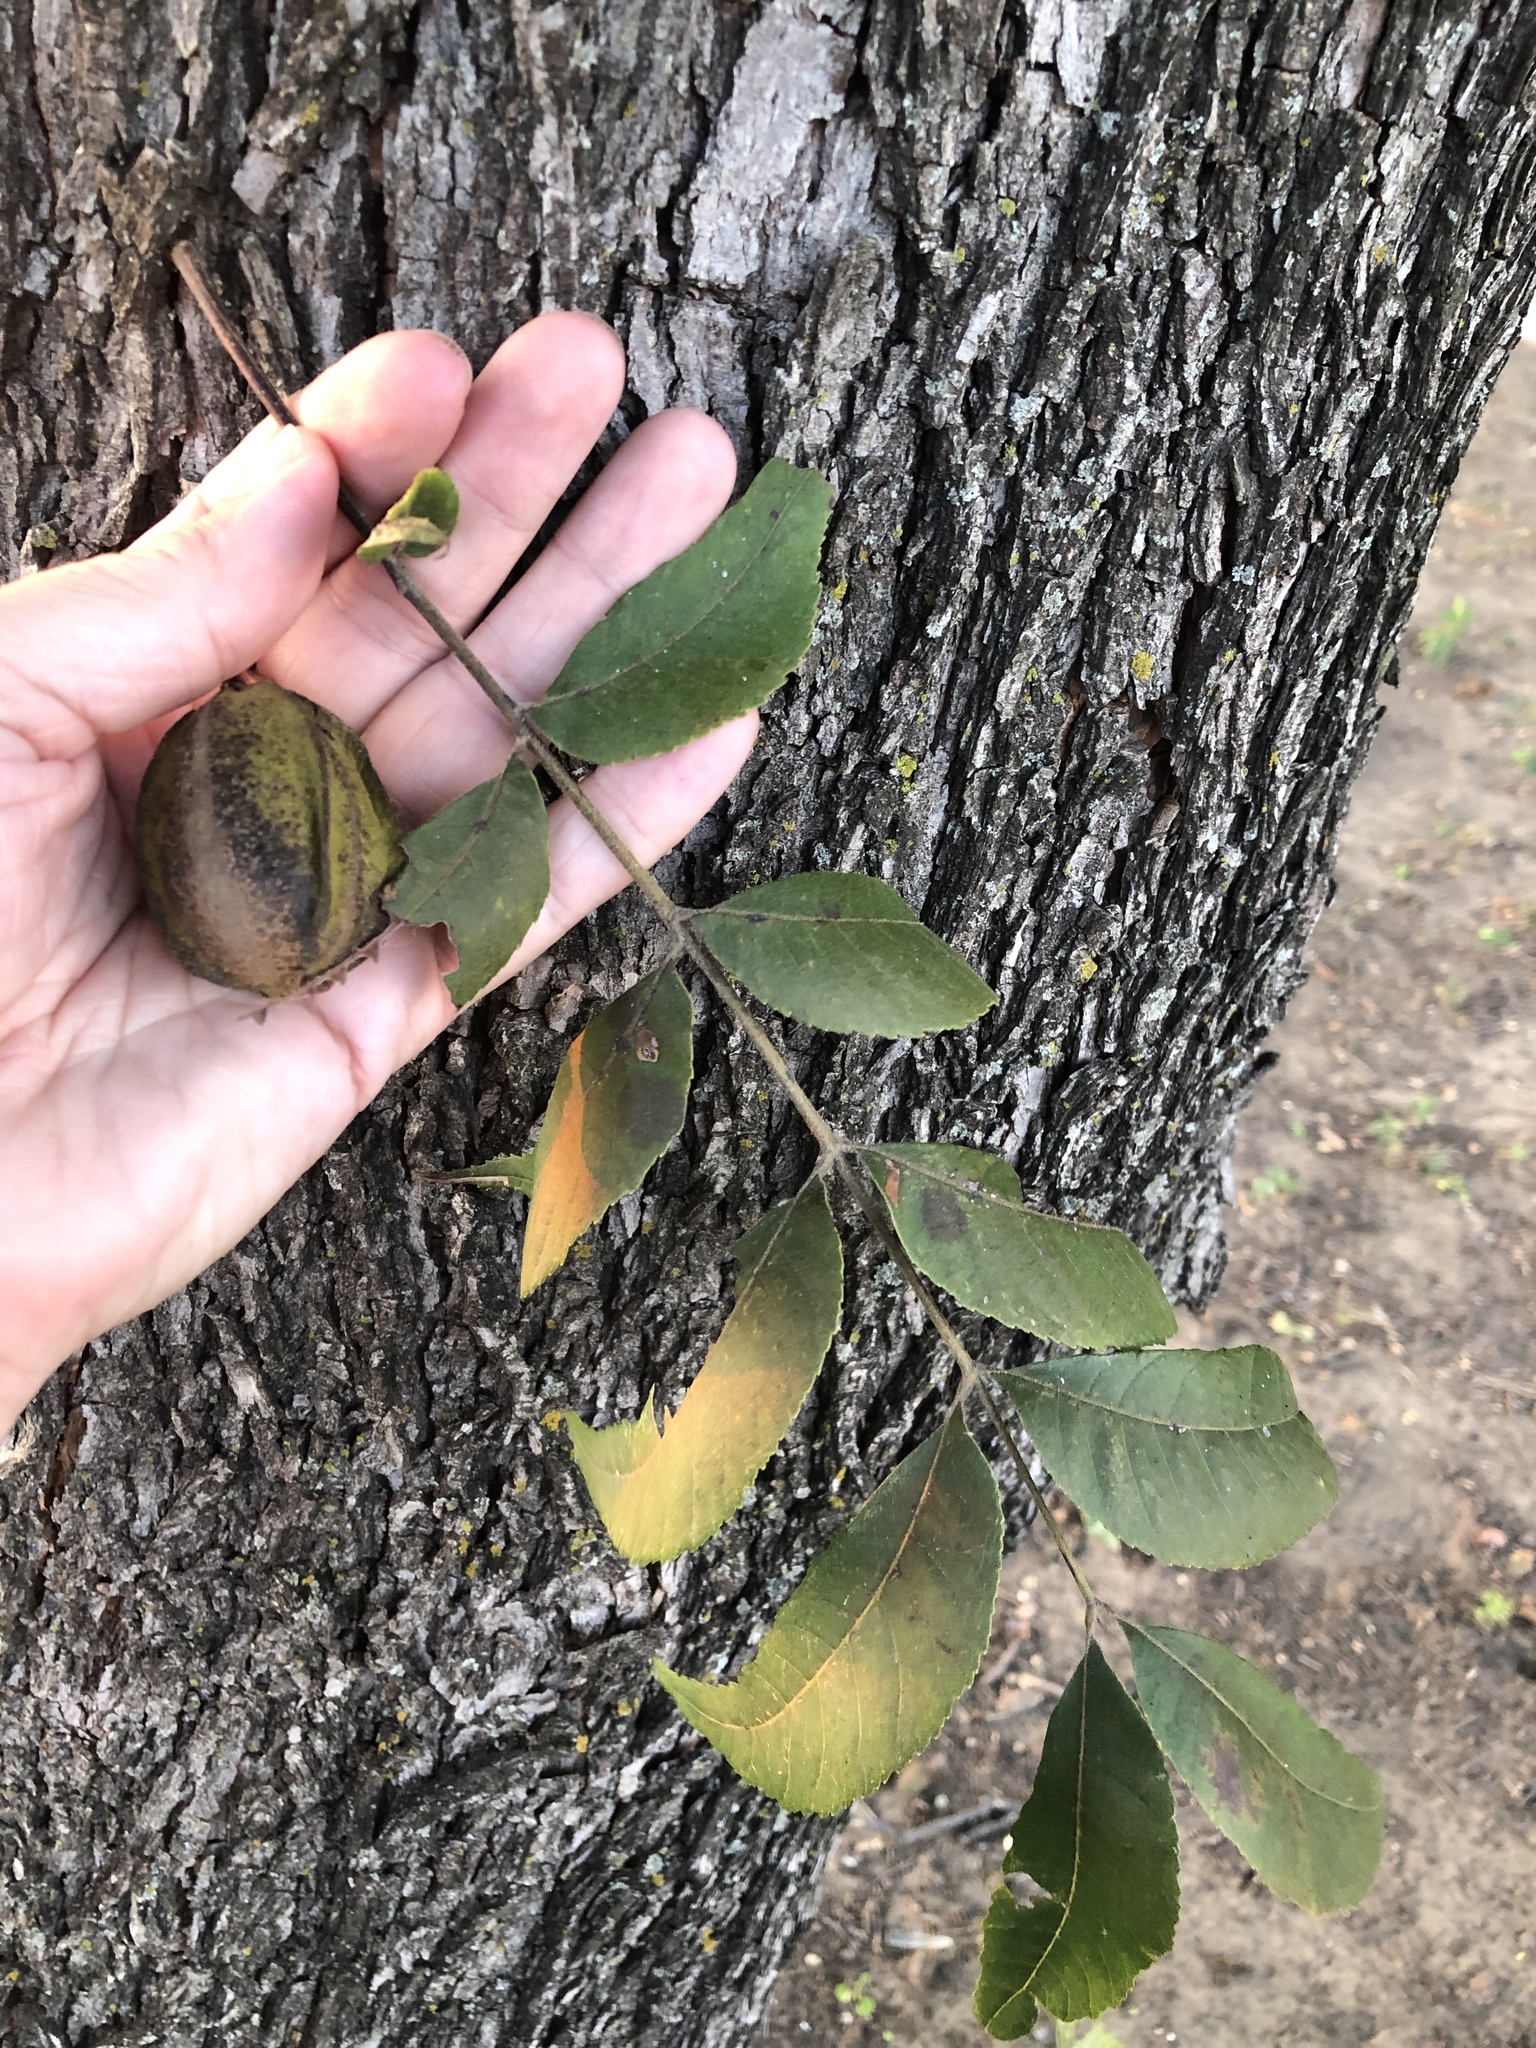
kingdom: Plantae
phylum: Tracheophyta
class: Magnoliopsida
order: Fagales
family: Juglandaceae
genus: Carya
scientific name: Carya illinoinensis
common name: Pecan
